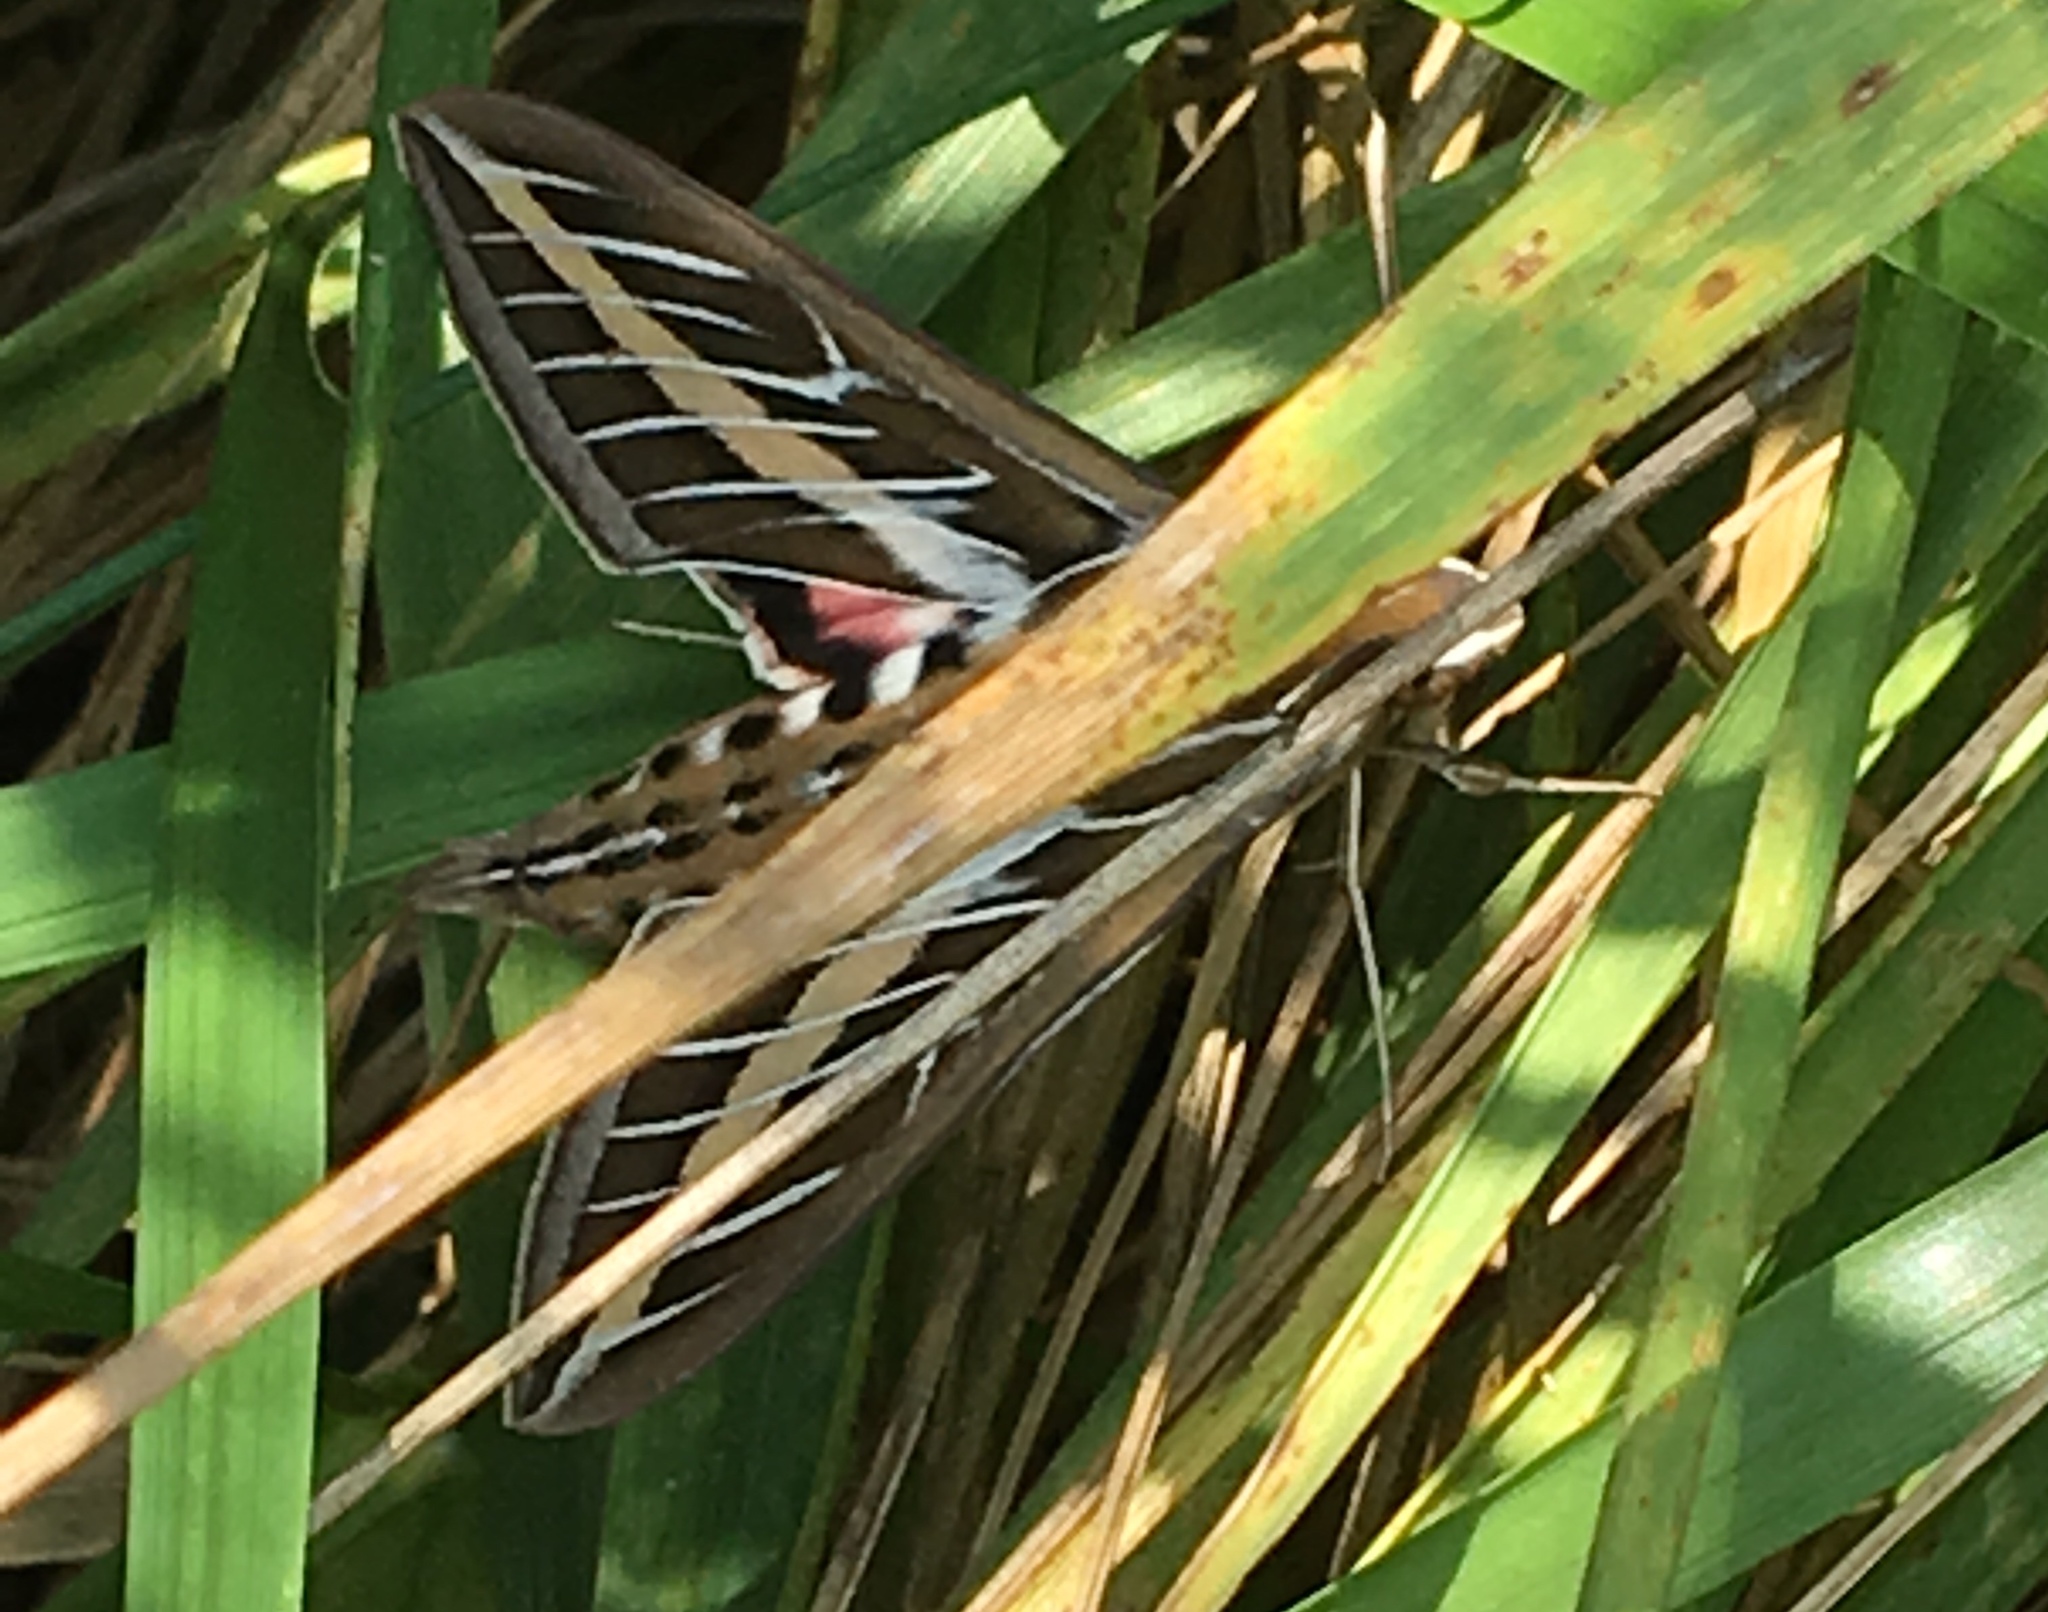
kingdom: Animalia
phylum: Arthropoda
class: Insecta
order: Lepidoptera
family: Sphingidae
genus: Hyles
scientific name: Hyles lineata
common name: White-lined sphinx
